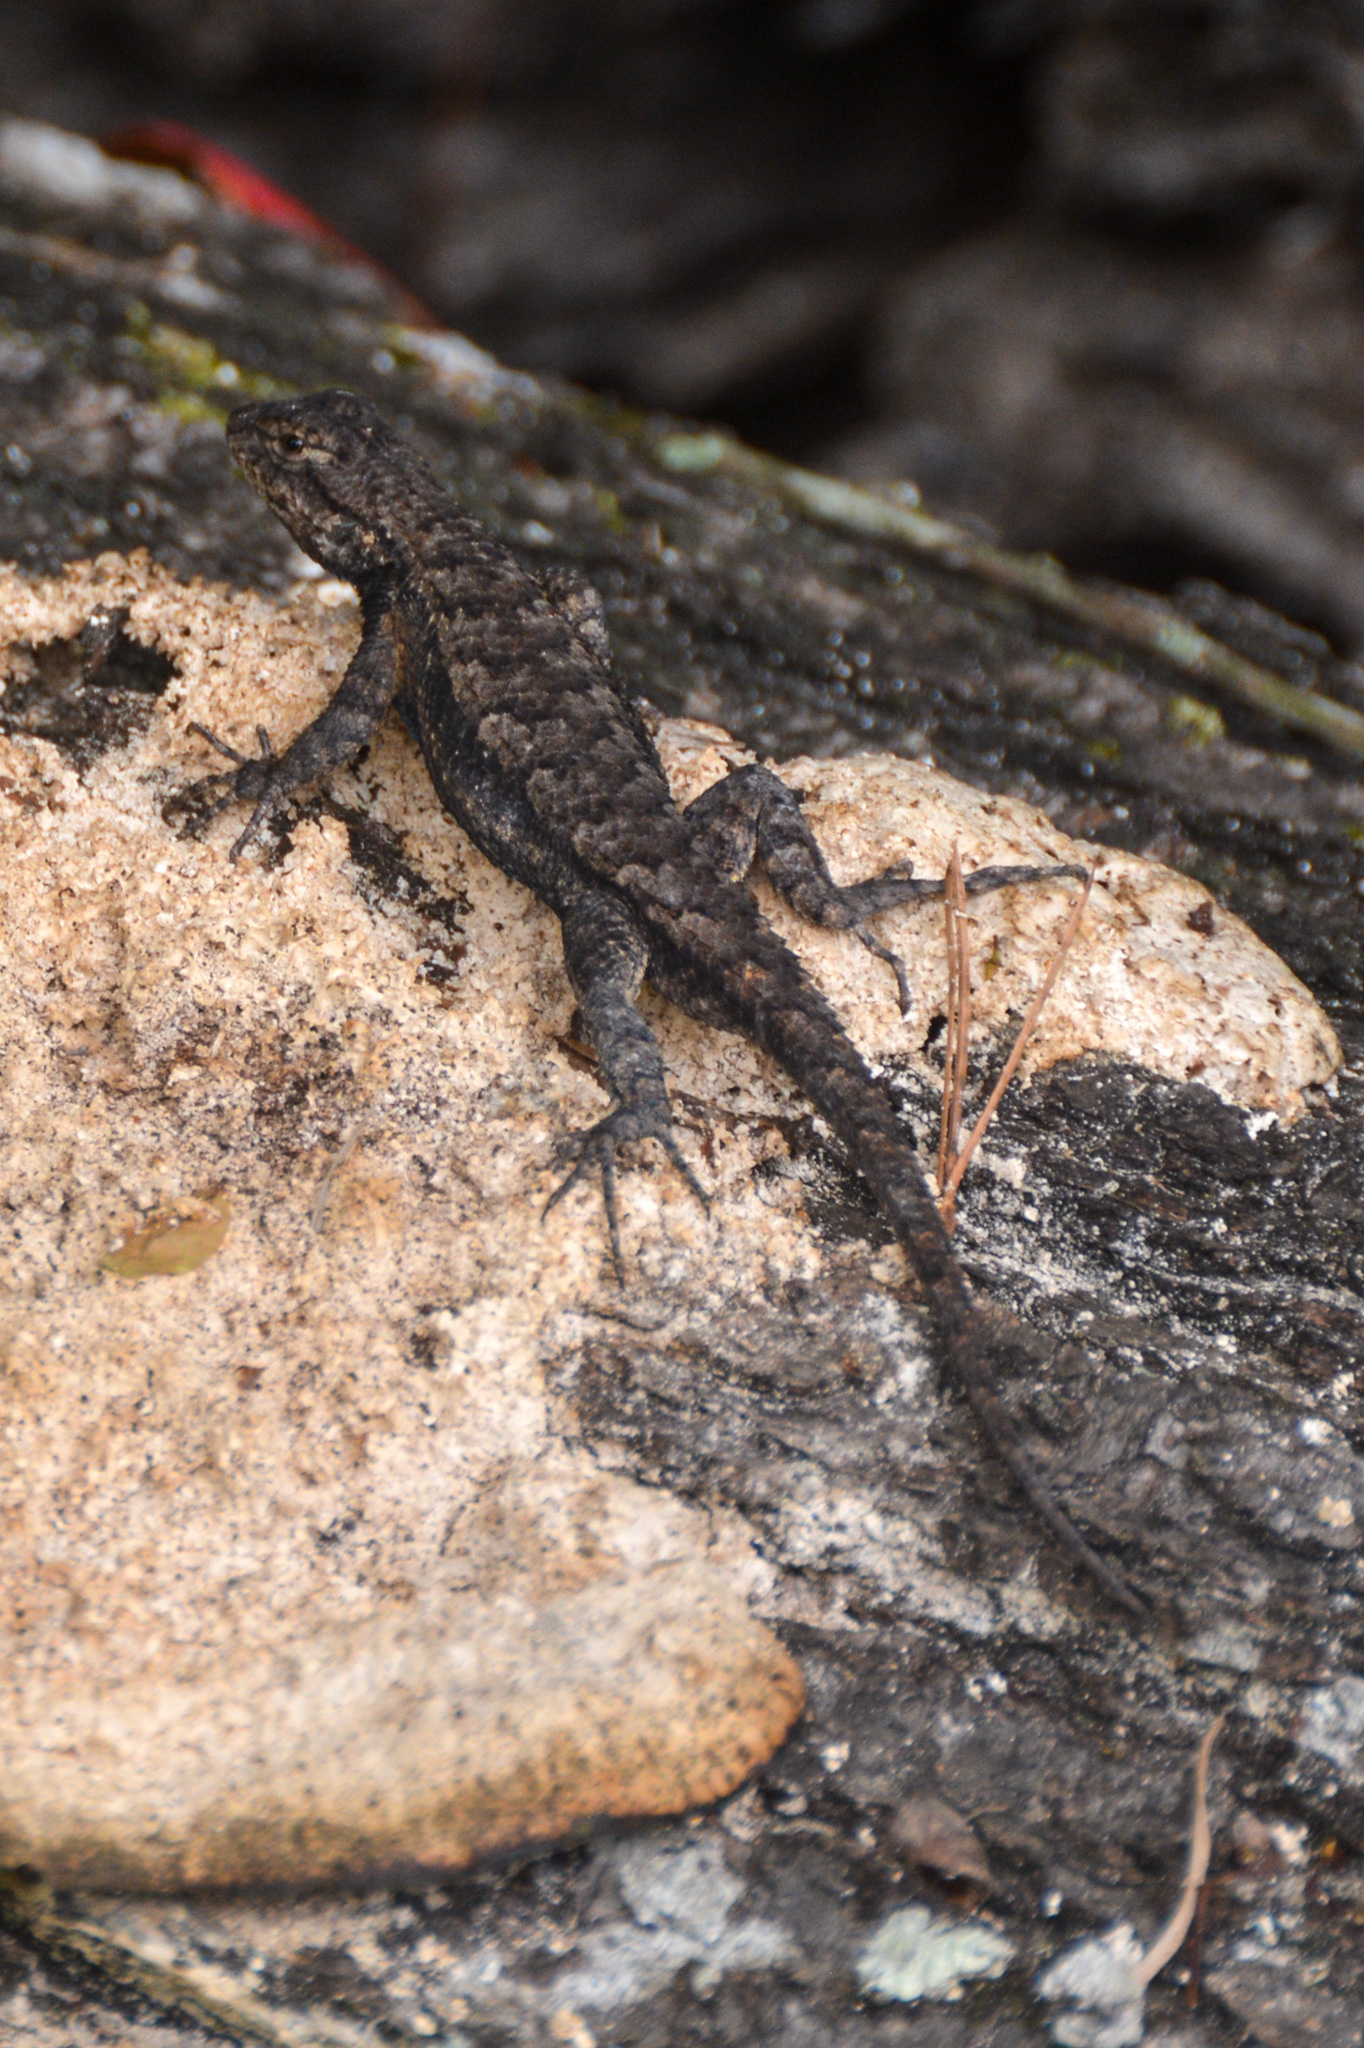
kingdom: Animalia
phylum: Chordata
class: Squamata
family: Phrynosomatidae
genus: Sceloporus
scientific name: Sceloporus consobrinus
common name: Southern prairie lizard
